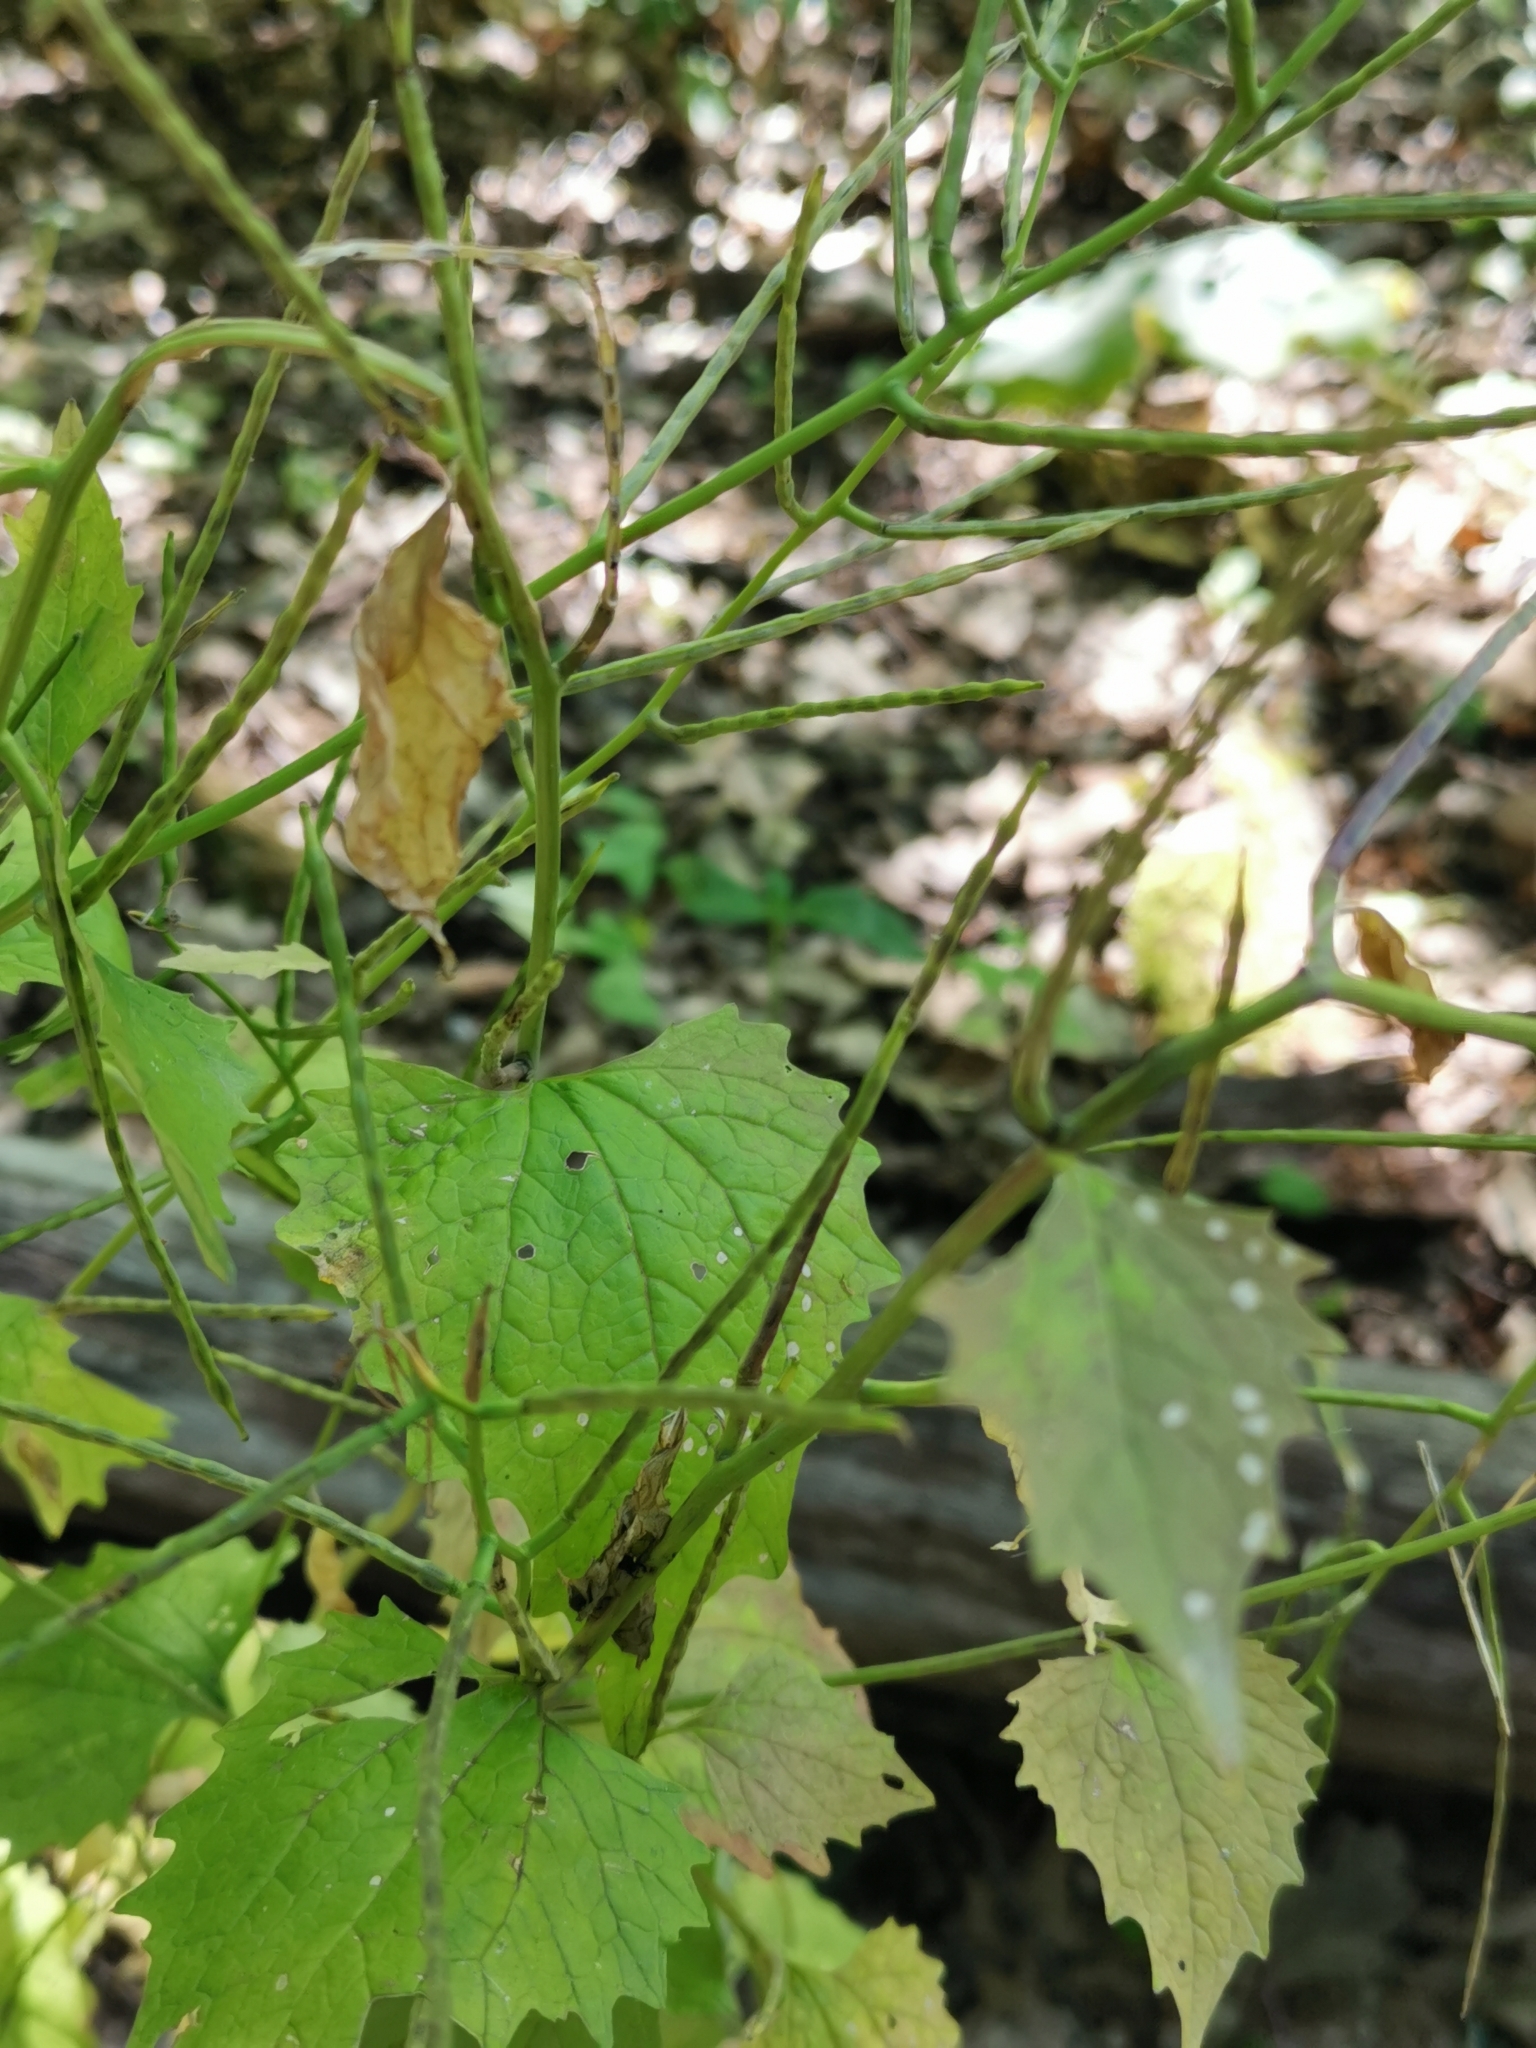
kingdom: Plantae
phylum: Tracheophyta
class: Magnoliopsida
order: Brassicales
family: Brassicaceae
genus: Alliaria
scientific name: Alliaria petiolata
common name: Garlic mustard
